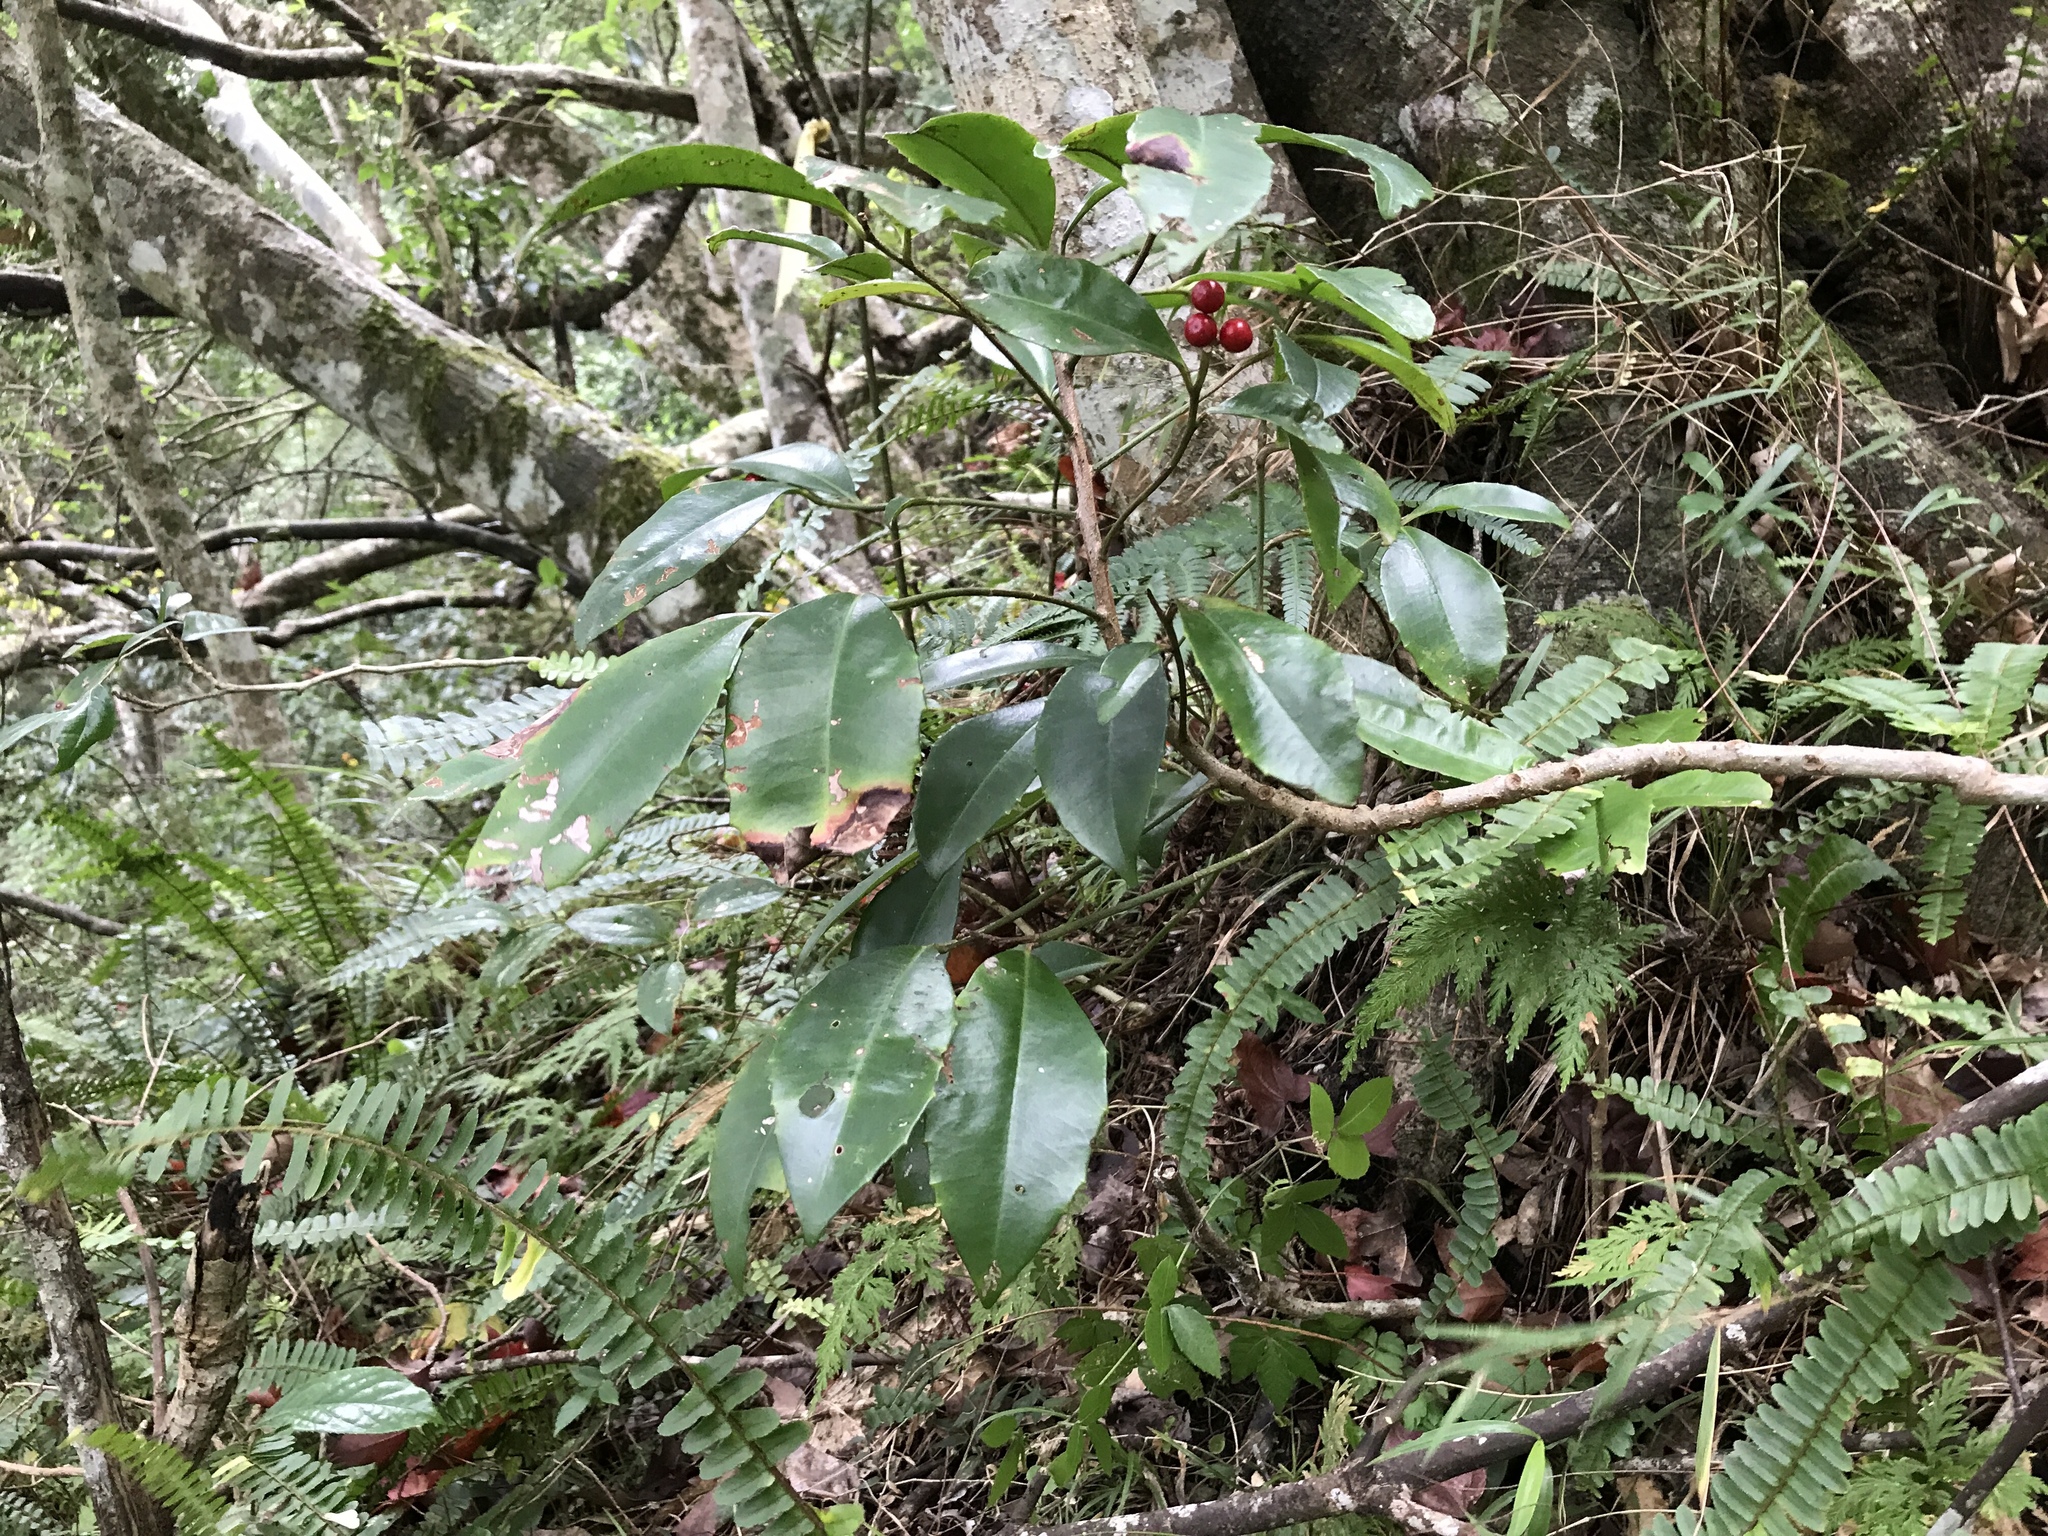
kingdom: Plantae
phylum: Tracheophyta
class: Magnoliopsida
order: Ericales
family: Primulaceae
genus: Ardisia
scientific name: Ardisia cornudentata
